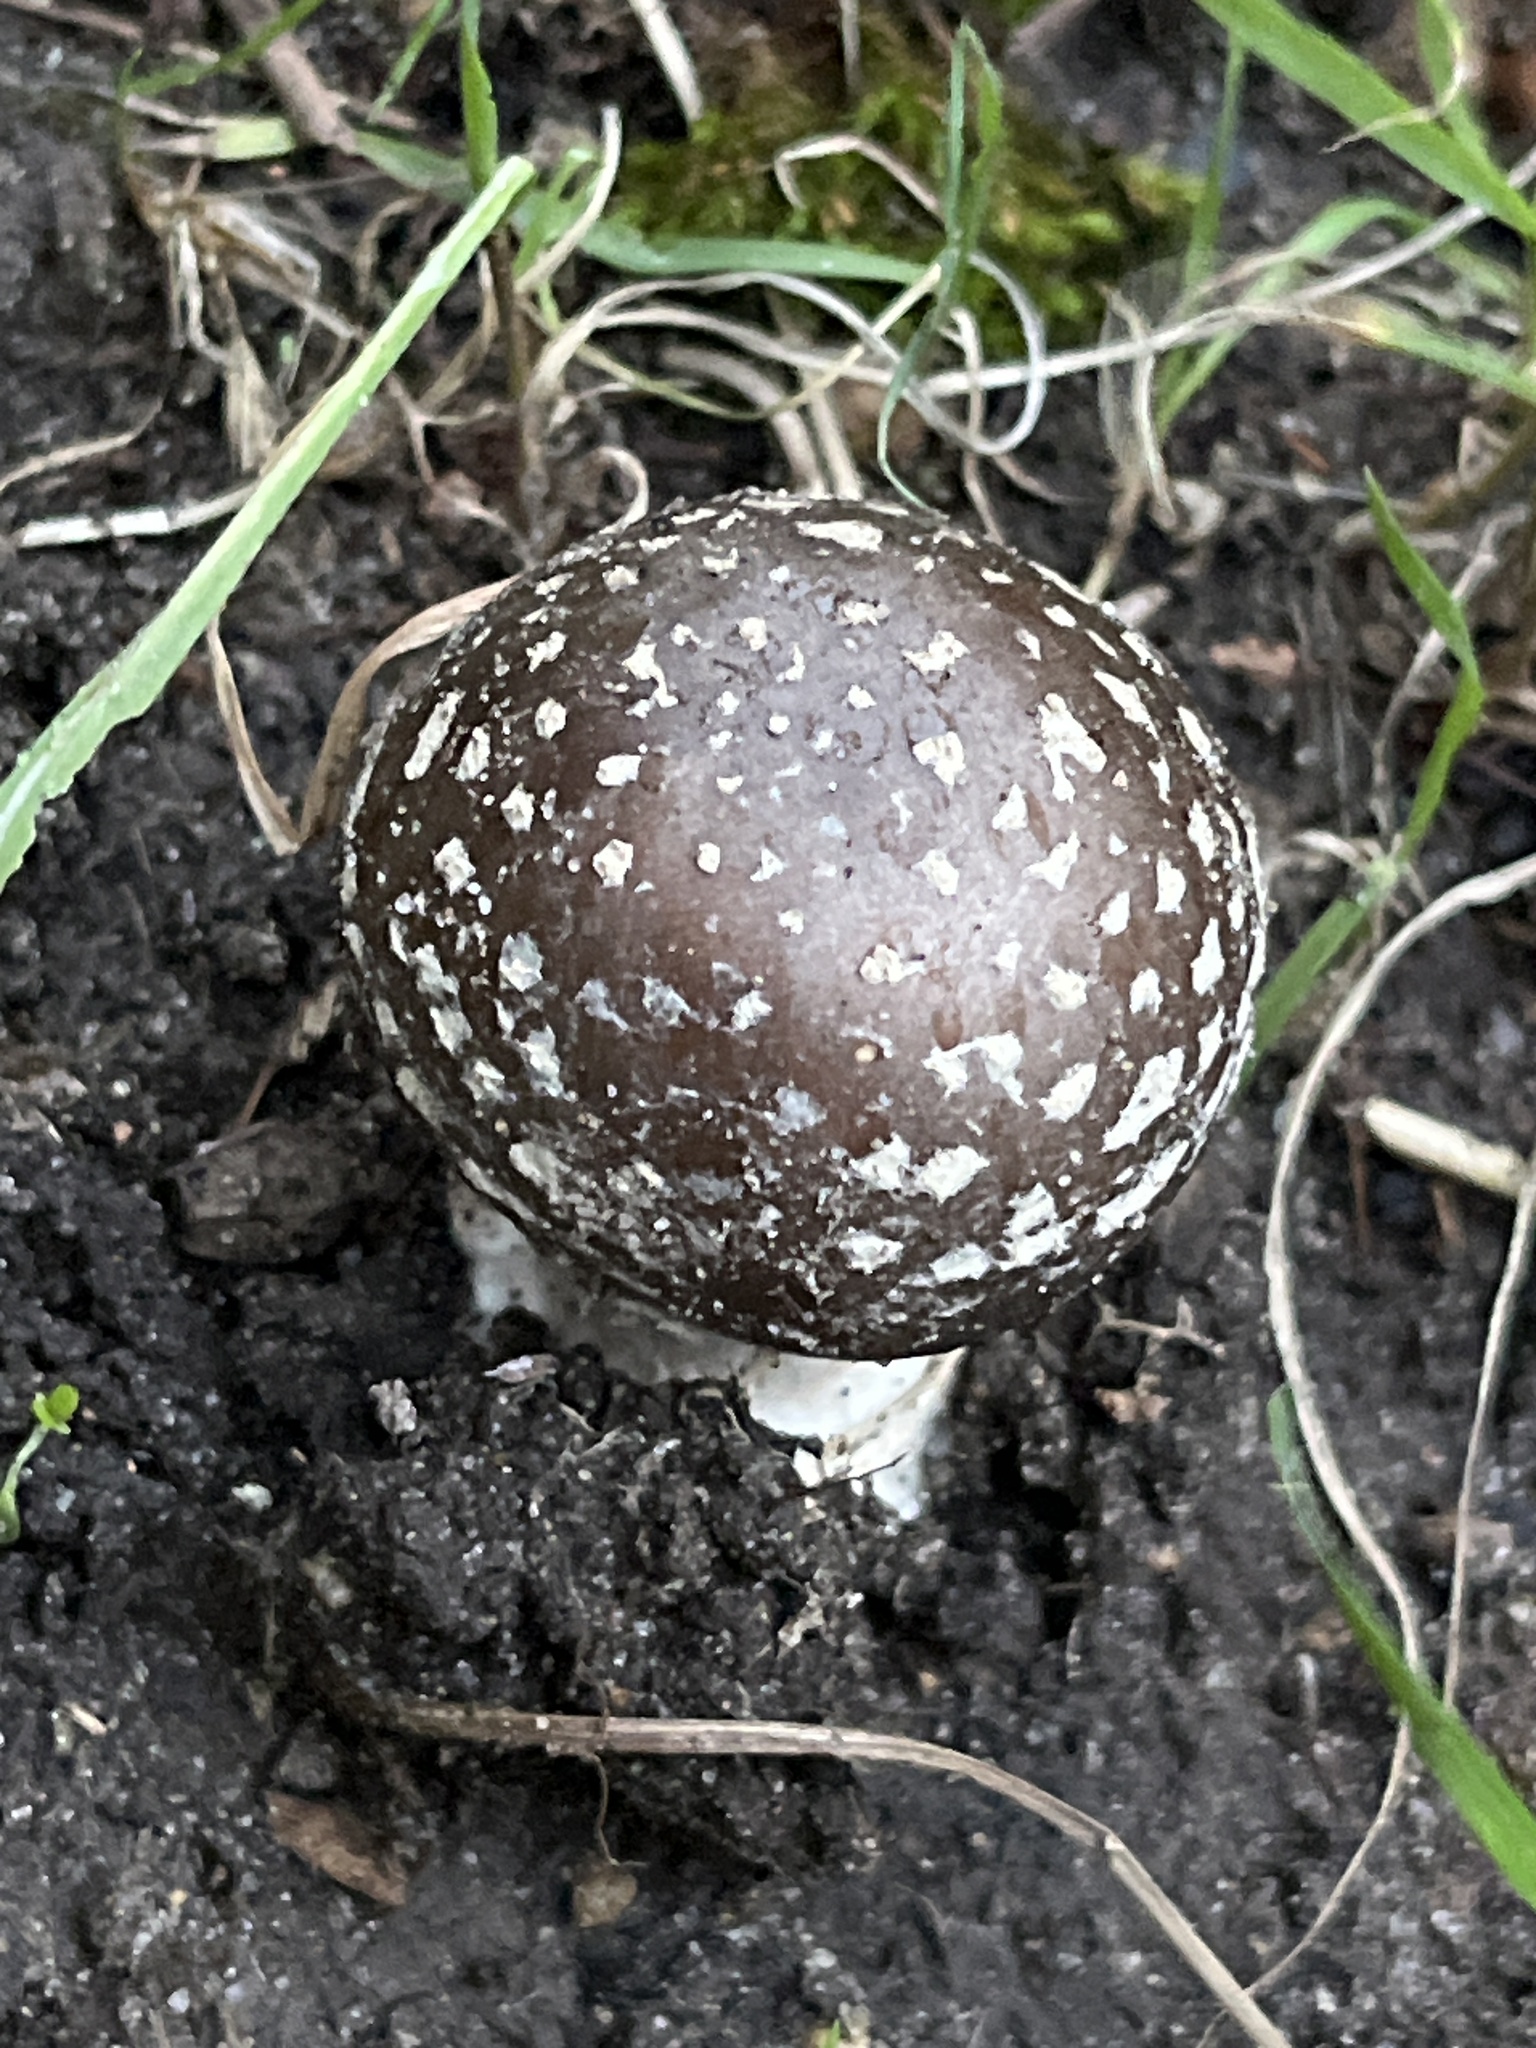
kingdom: Fungi
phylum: Basidiomycota
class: Agaricomycetes
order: Agaricales
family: Amanitaceae
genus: Amanita
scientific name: Amanita pantherina
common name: Panthercap
